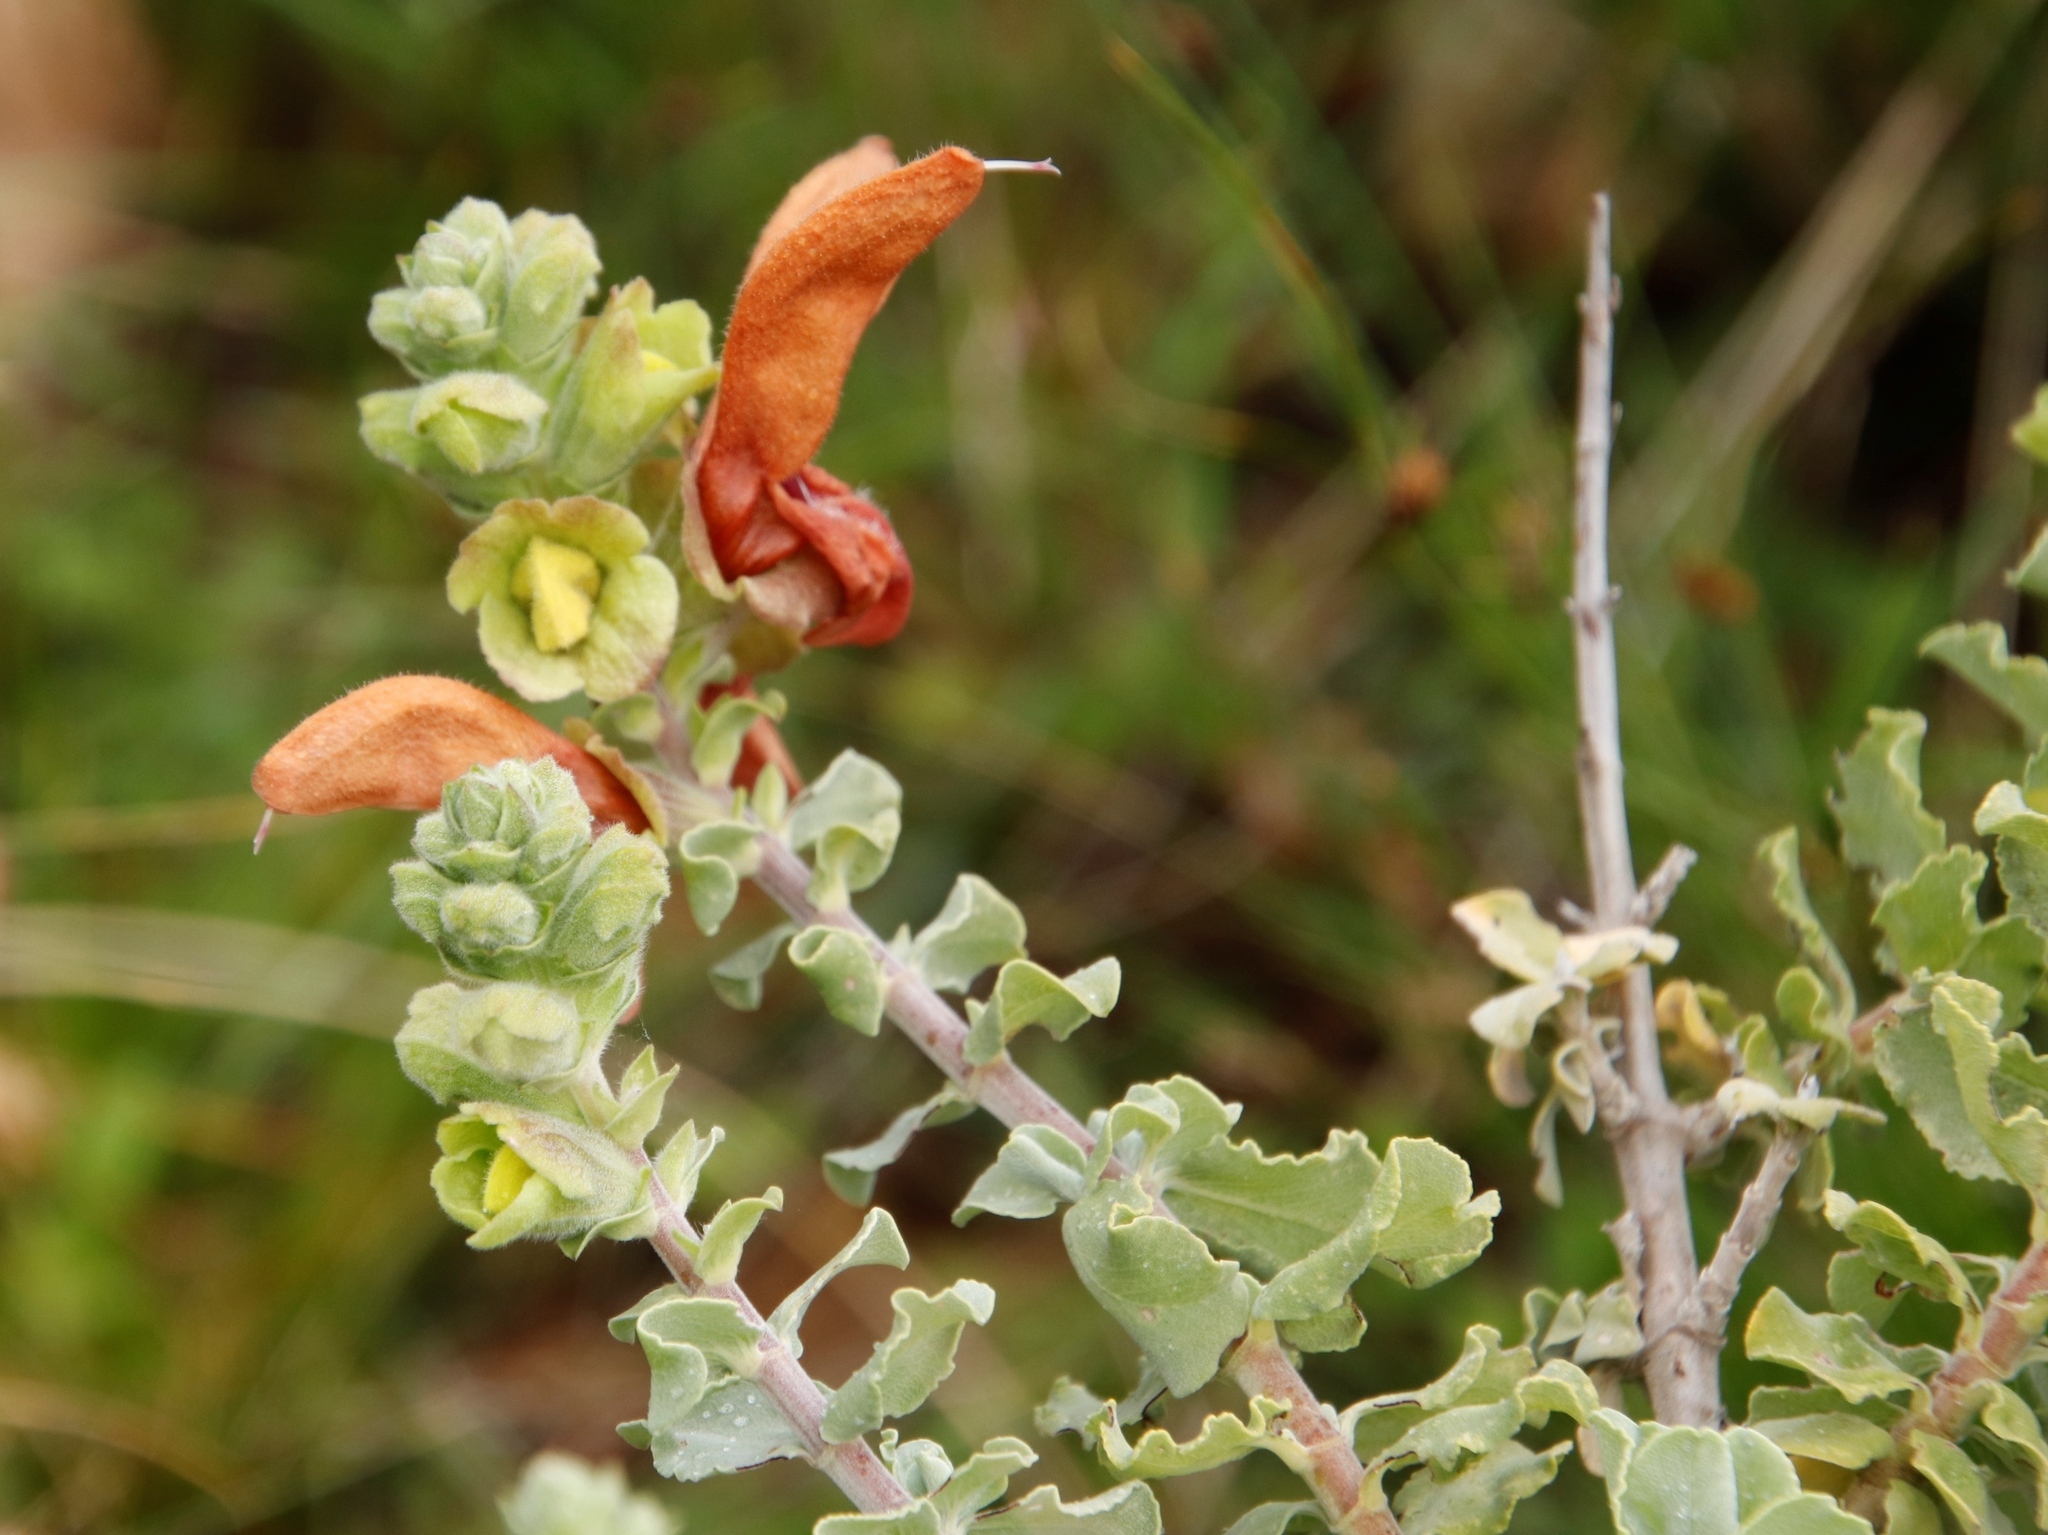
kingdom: Plantae
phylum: Tracheophyta
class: Magnoliopsida
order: Lamiales
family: Lamiaceae
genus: Salvia
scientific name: Salvia aurea
